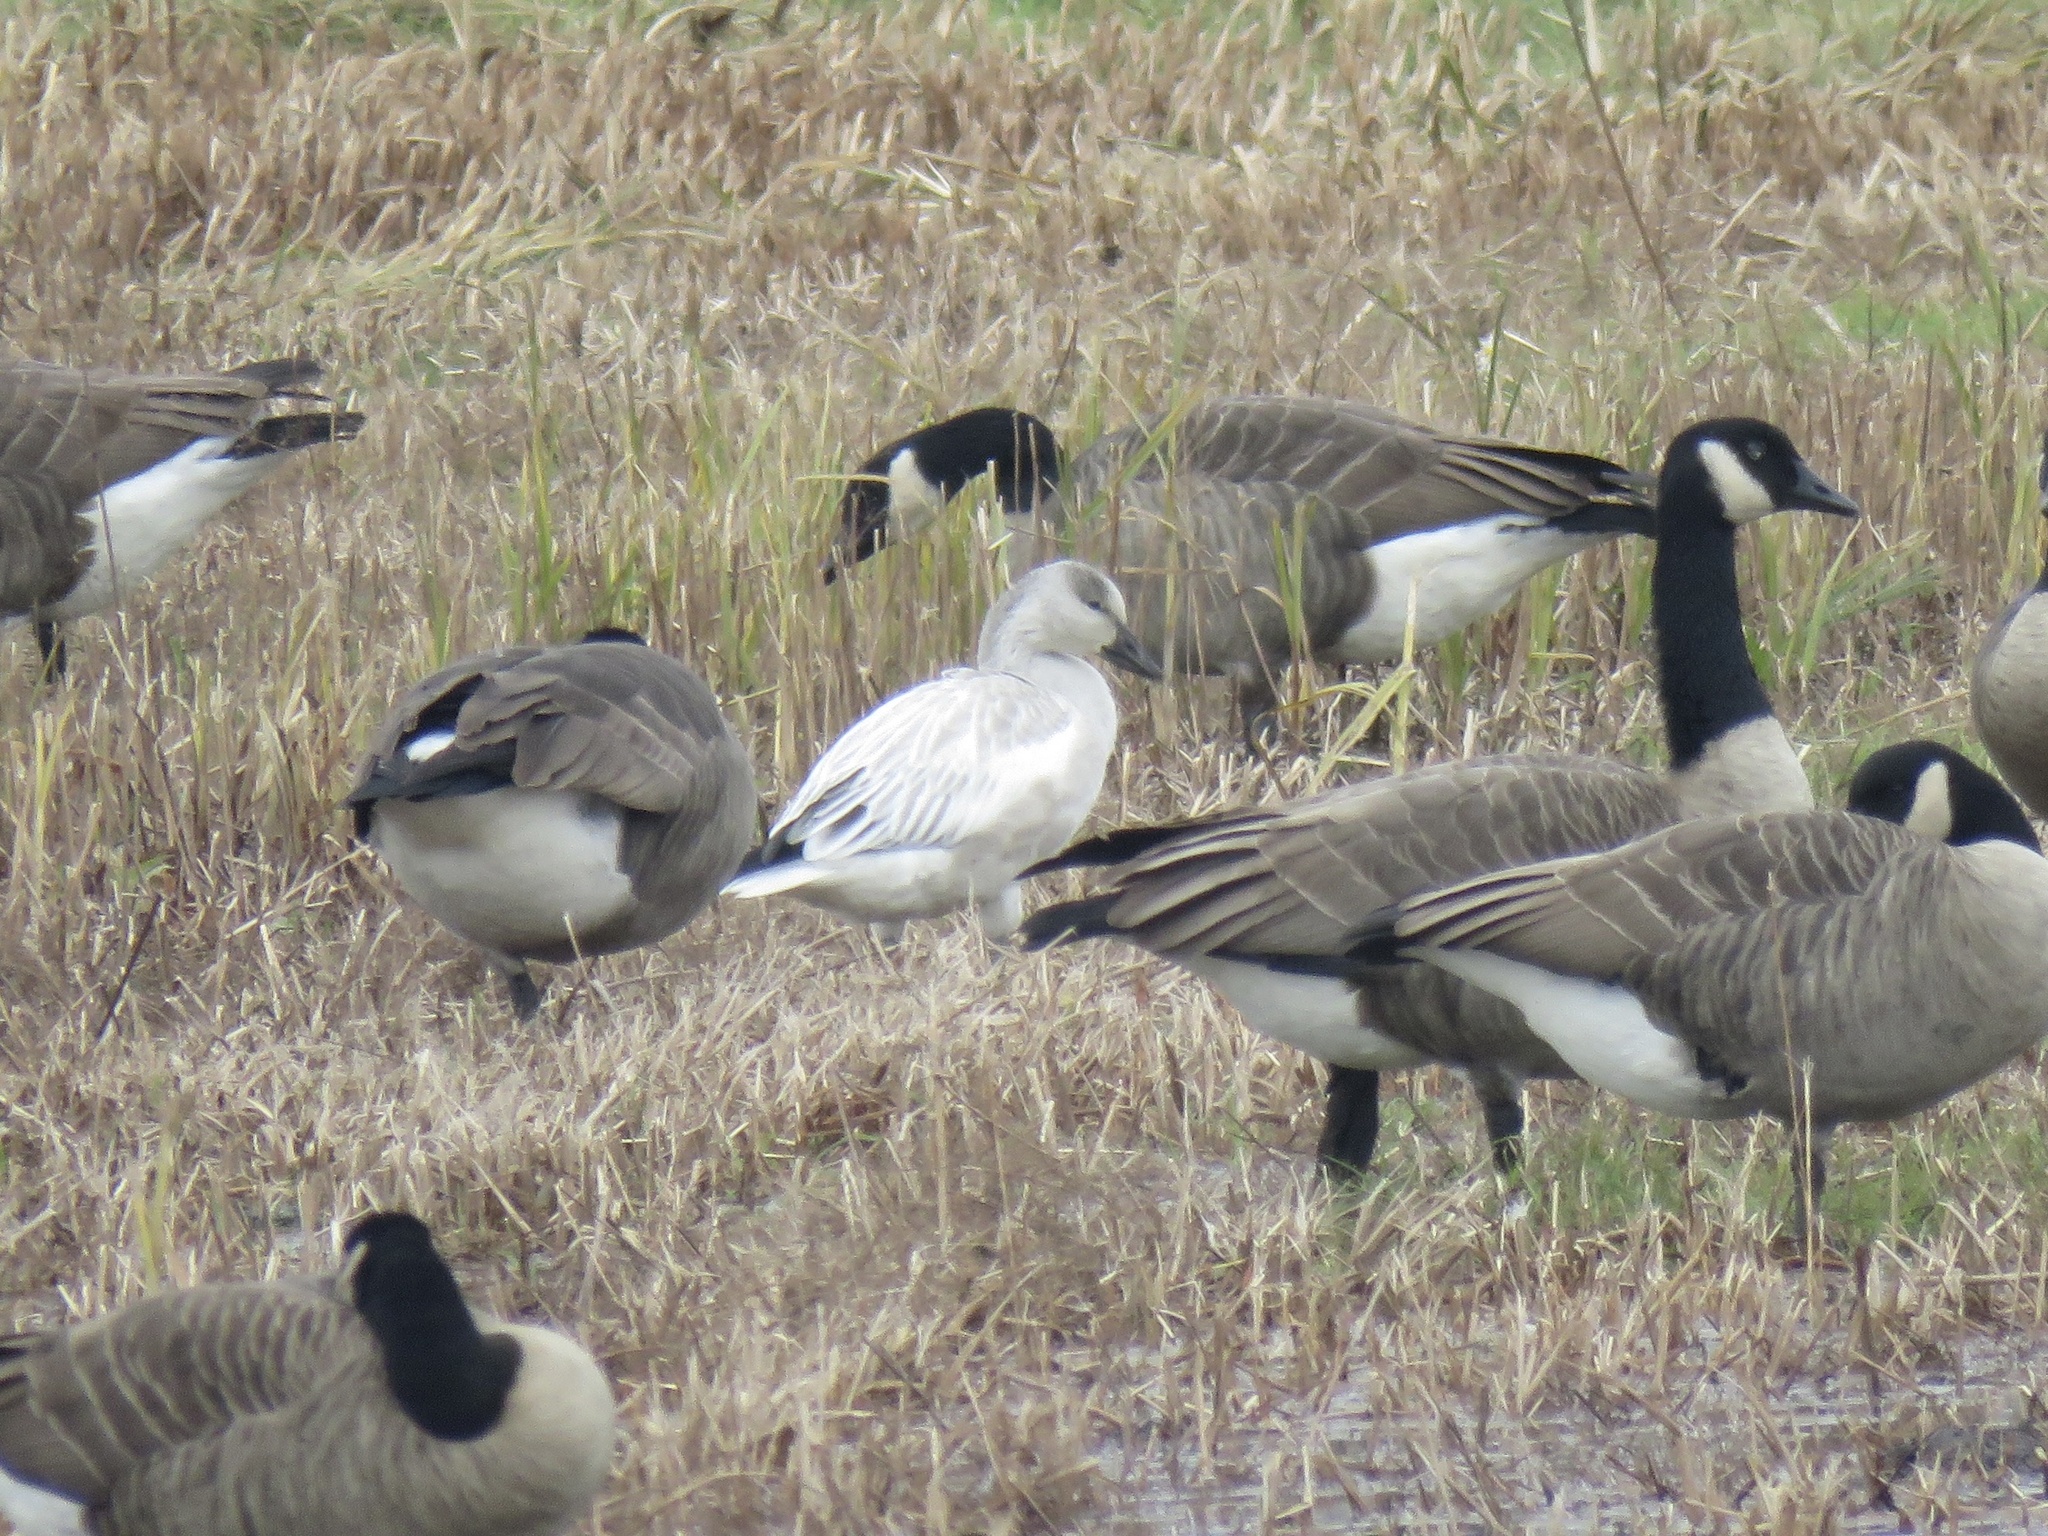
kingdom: Animalia
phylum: Chordata
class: Aves
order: Anseriformes
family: Anatidae
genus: Anser
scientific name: Anser caerulescens
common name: Snow goose
